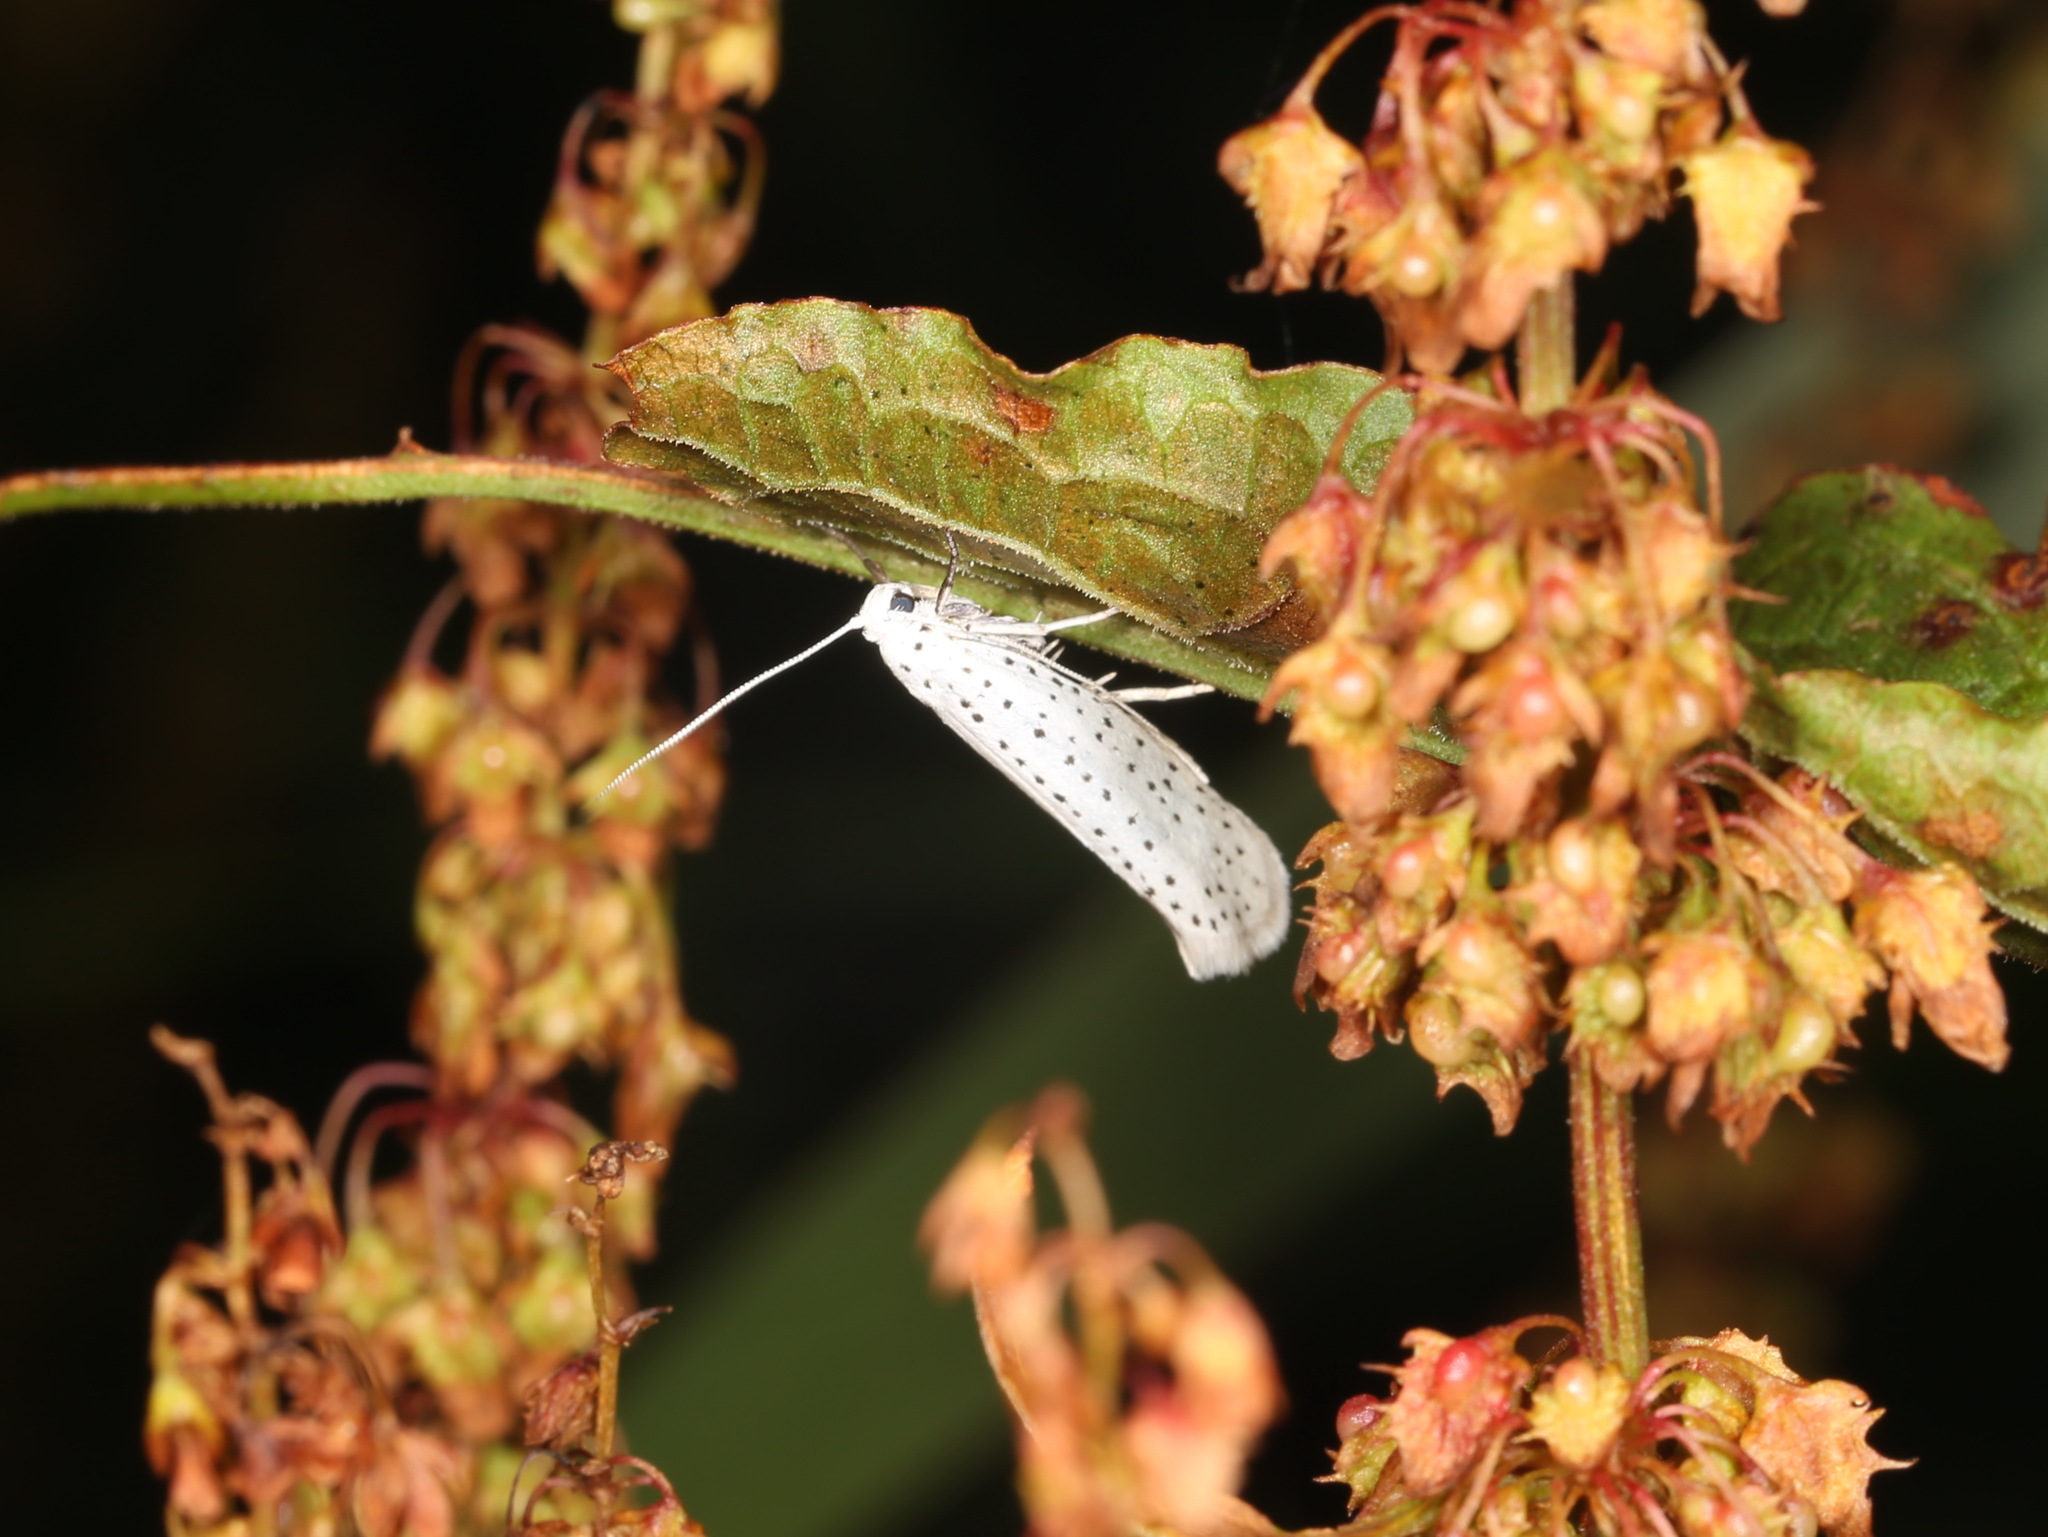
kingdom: Animalia
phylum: Arthropoda
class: Insecta
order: Lepidoptera
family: Yponomeutidae
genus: Yponomeuta
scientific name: Yponomeuta evonymella
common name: Bird-cherry ermine
